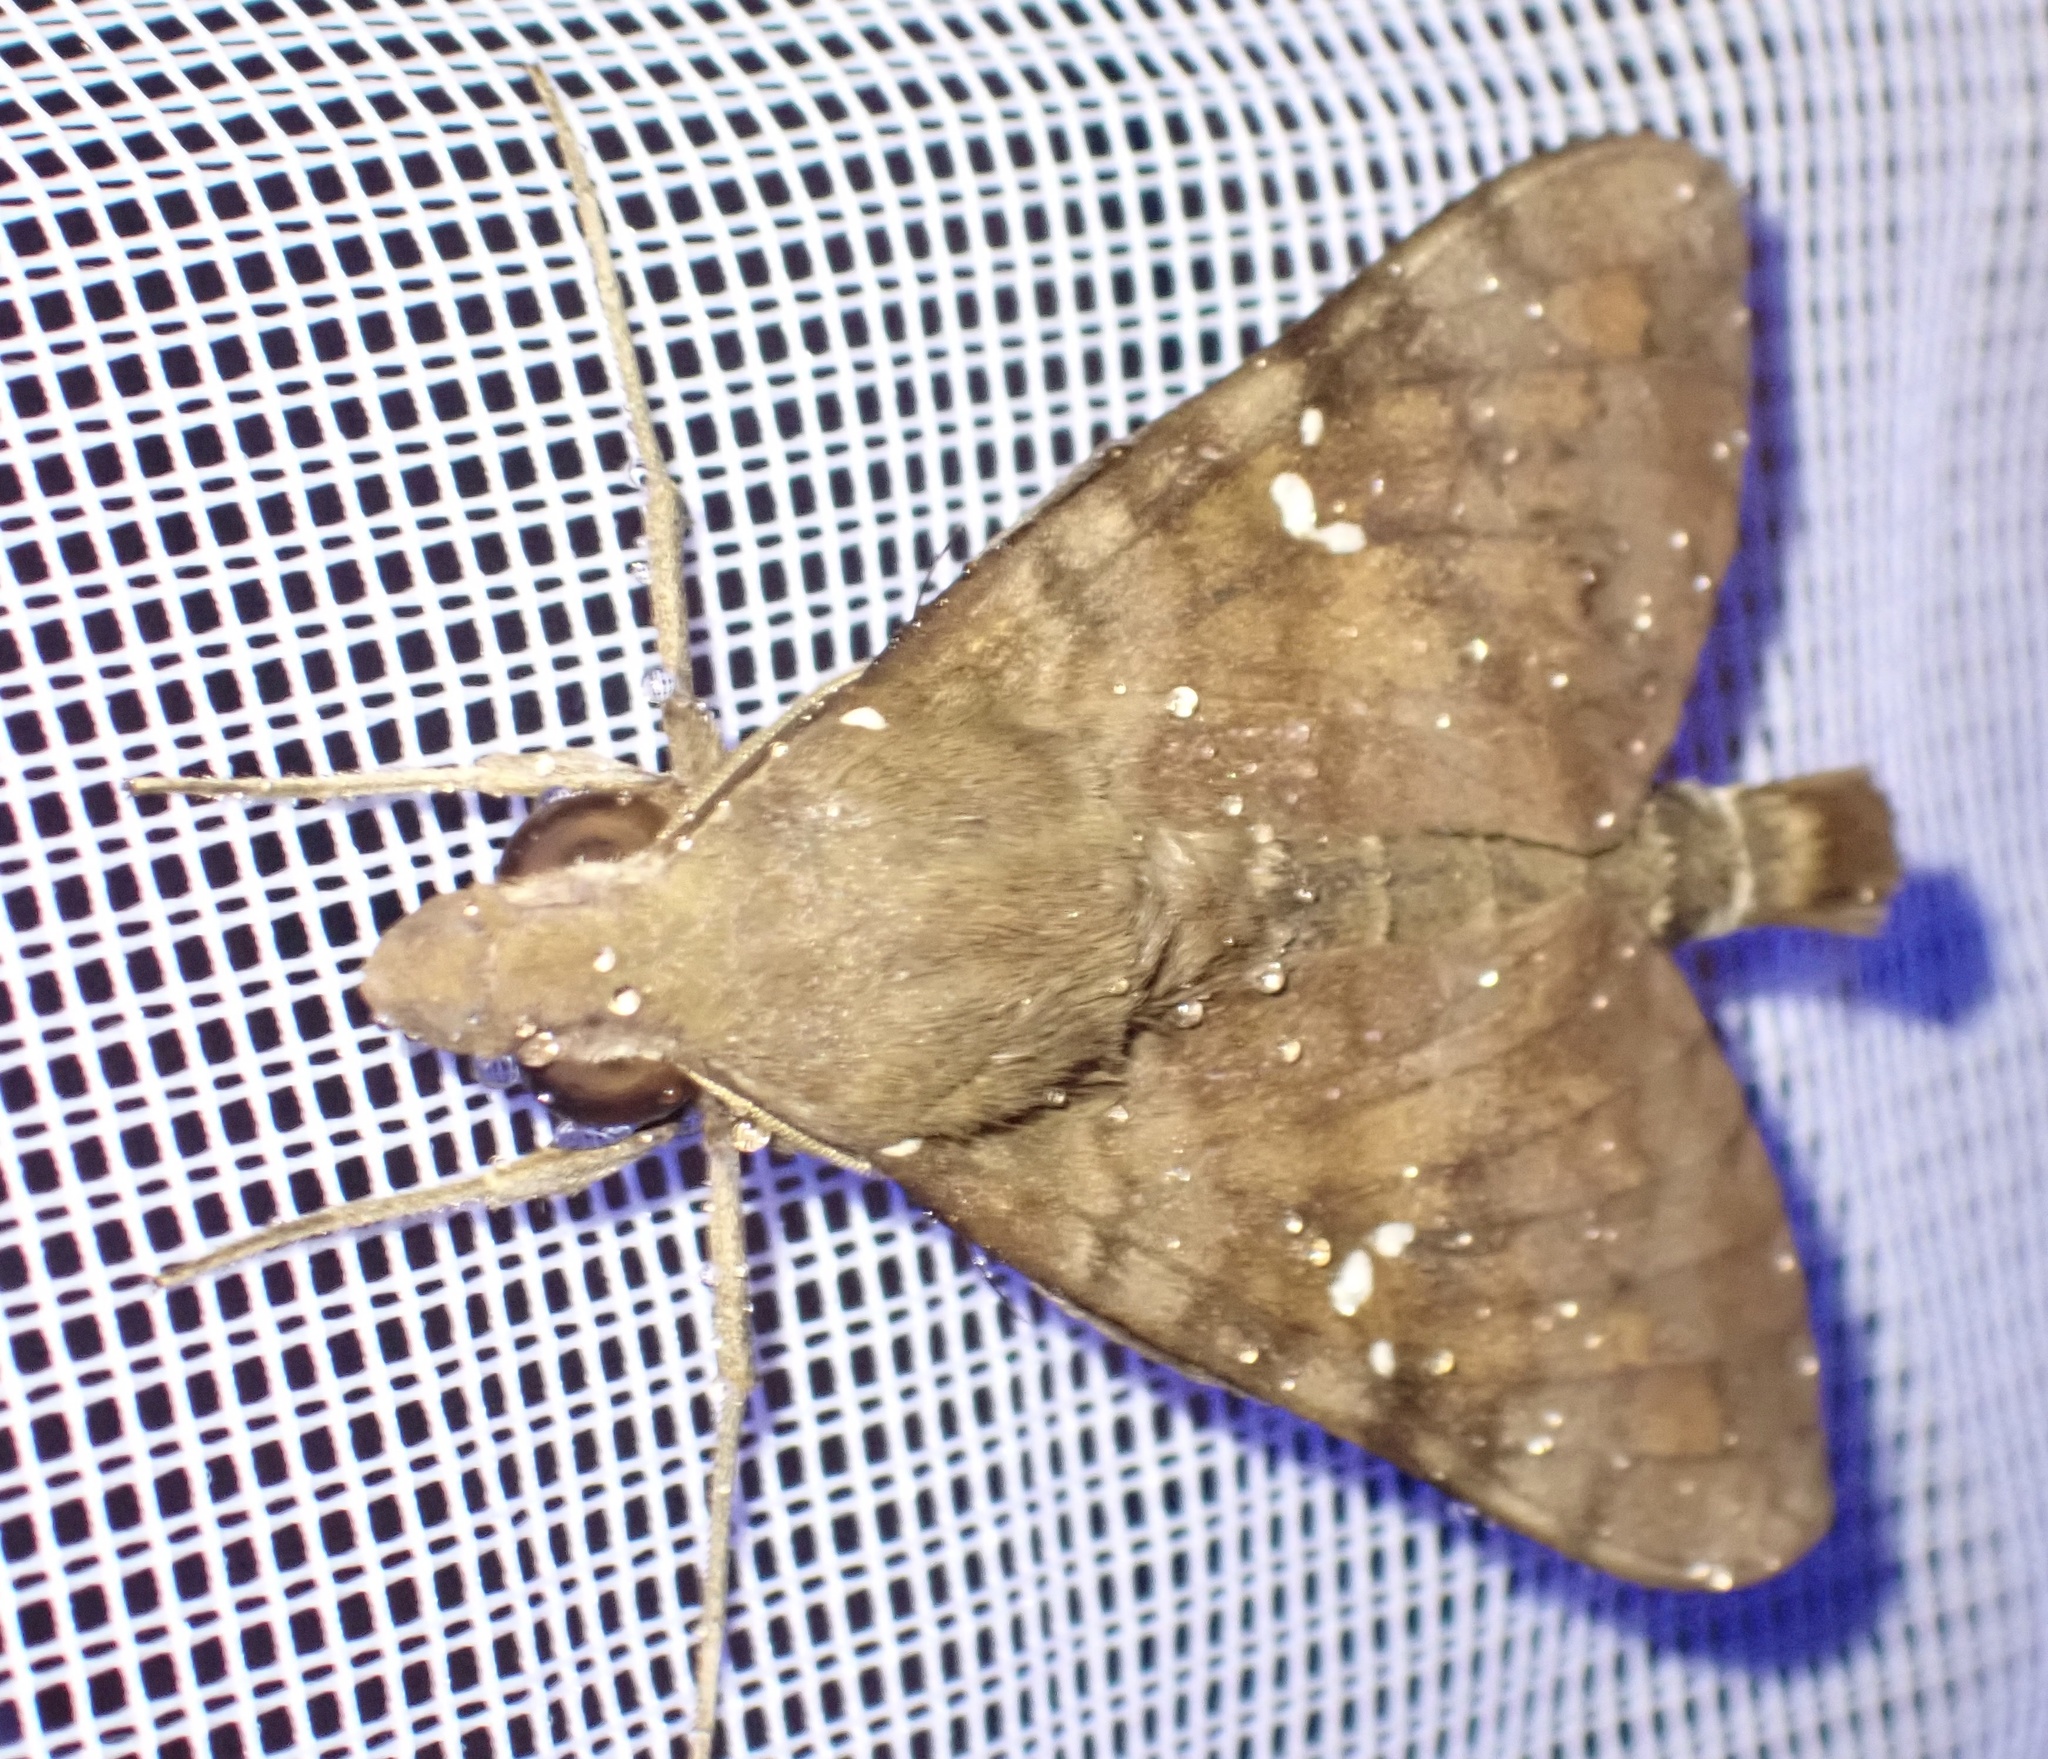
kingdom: Animalia
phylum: Arthropoda
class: Insecta
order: Lepidoptera
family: Sphingidae
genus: Nephele
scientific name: Nephele peneus
